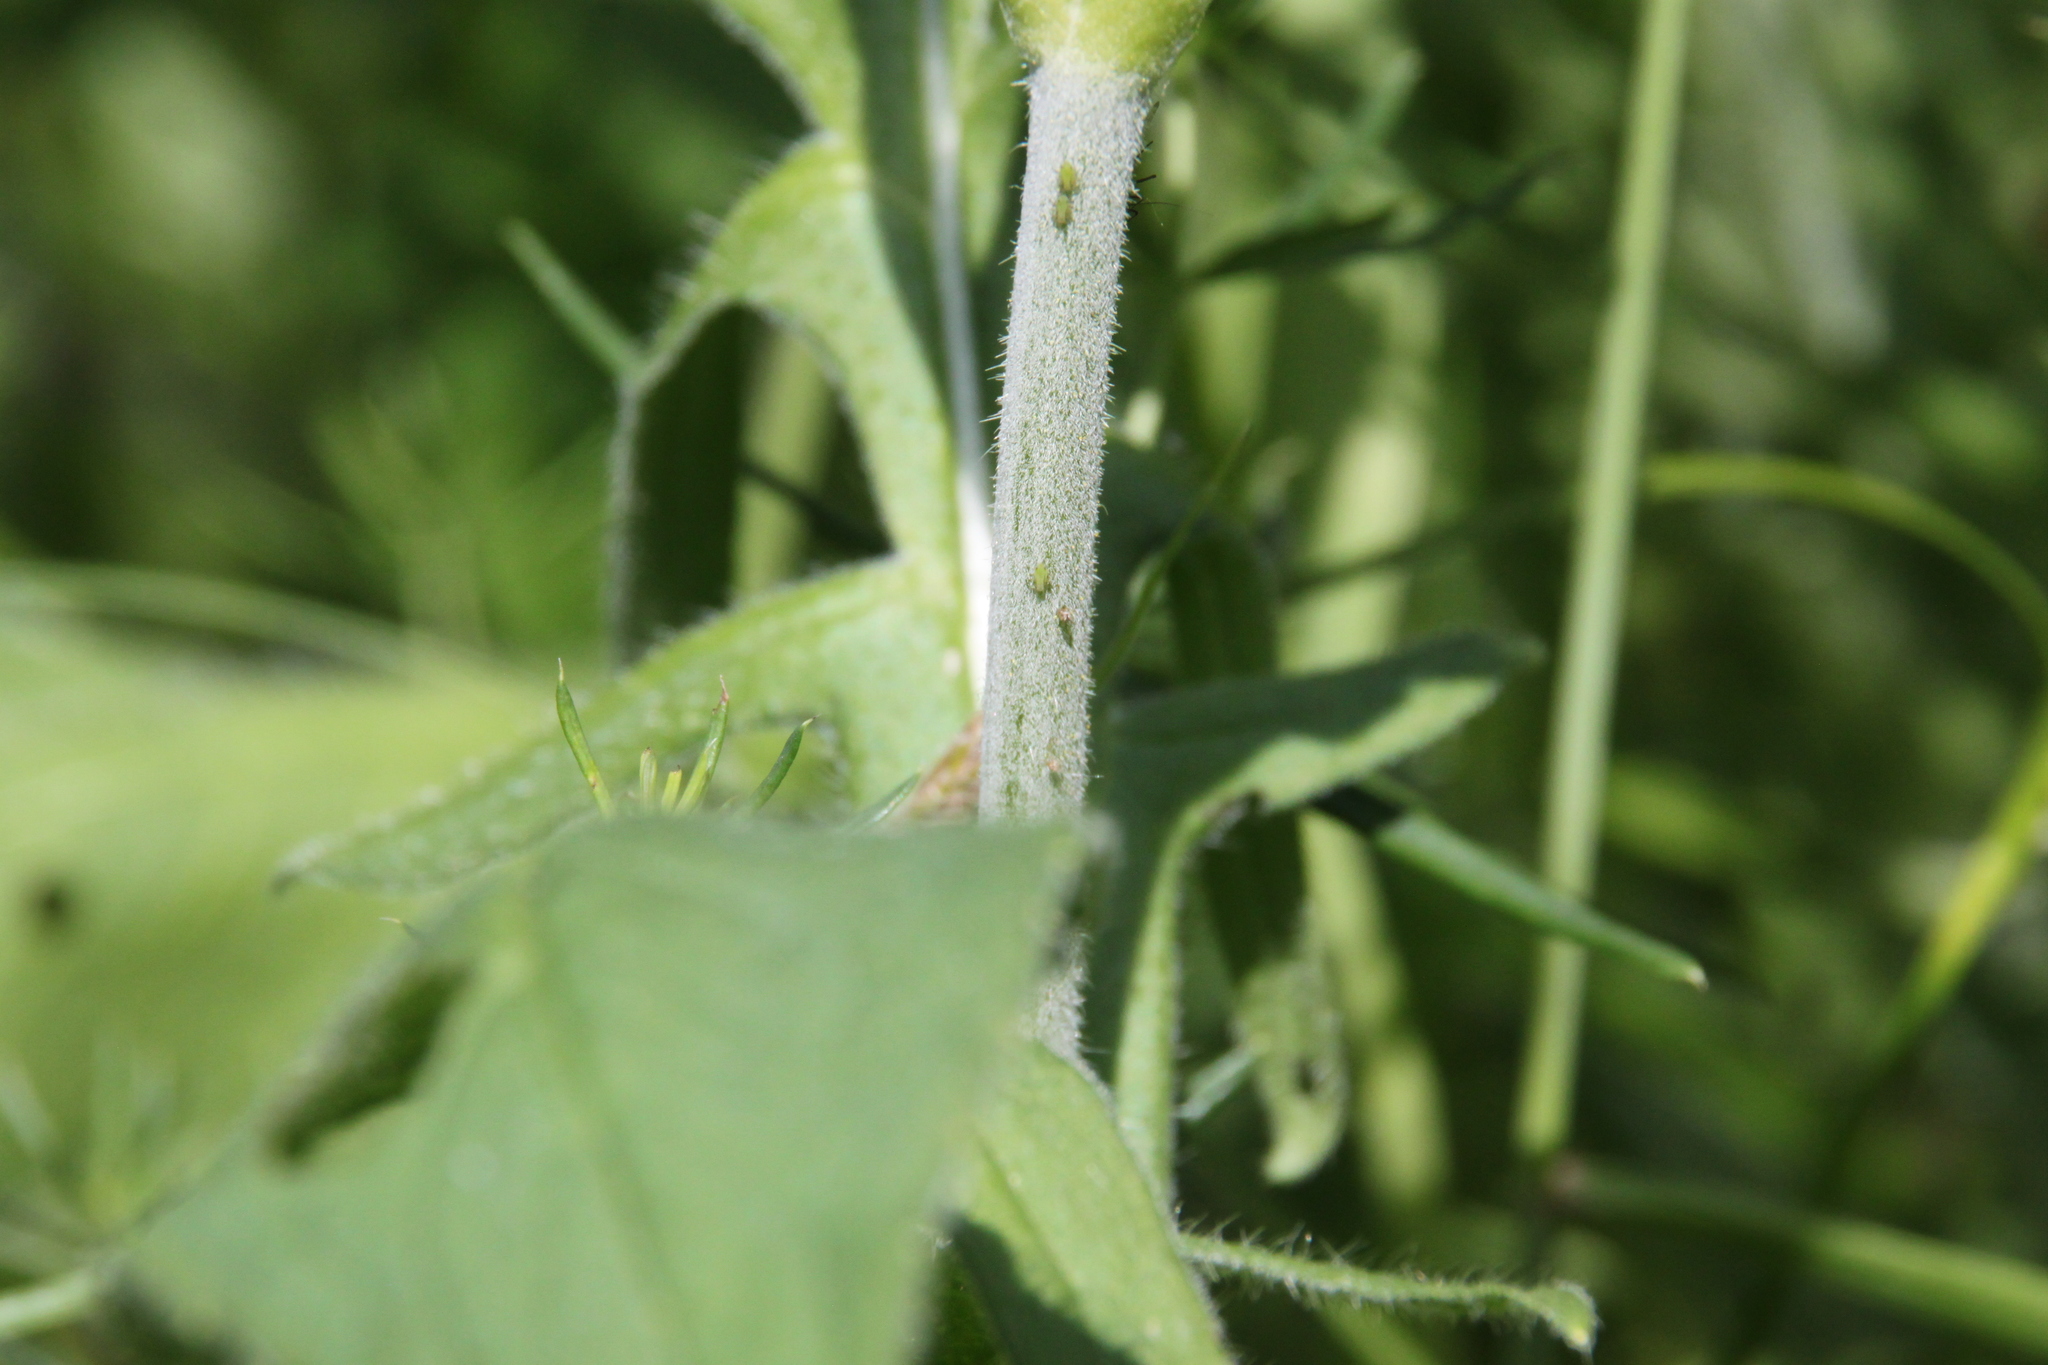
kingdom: Plantae
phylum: Tracheophyta
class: Magnoliopsida
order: Dipsacales
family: Caprifoliaceae
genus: Knautia
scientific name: Knautia arvensis
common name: Field scabiosa
